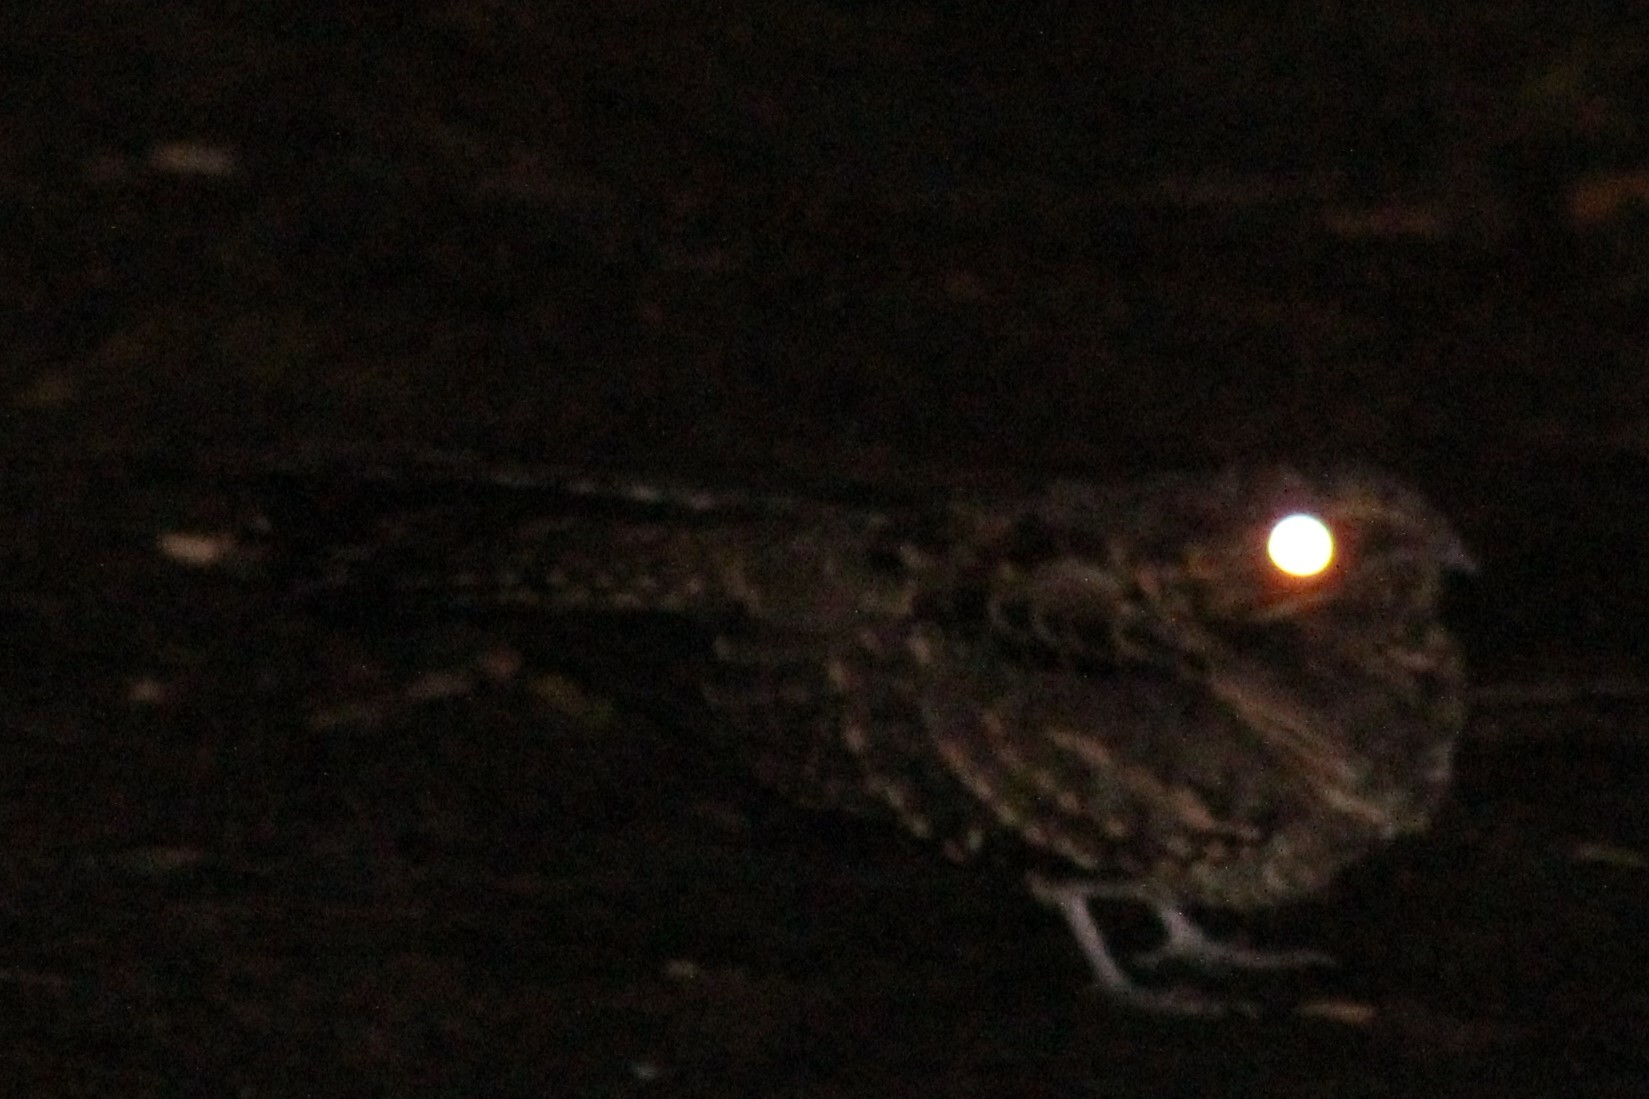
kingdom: Animalia
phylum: Chordata
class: Aves
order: Caprimulgiformes
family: Caprimulgidae
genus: Nyctidromus
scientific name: Nyctidromus albicollis
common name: Pauraque
